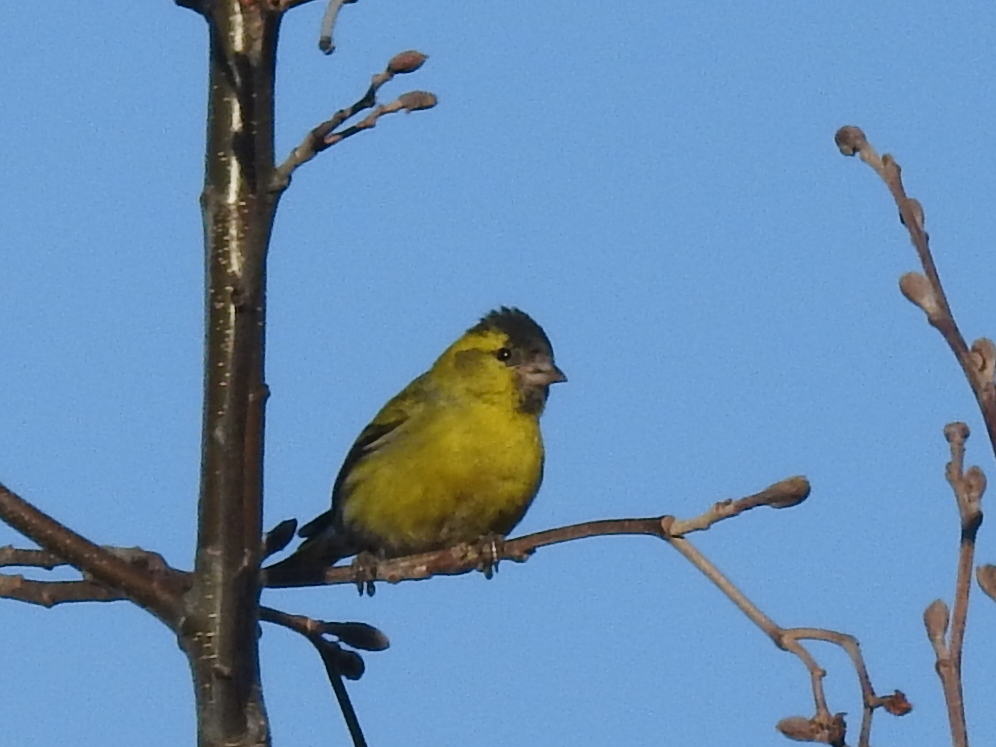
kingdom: Animalia
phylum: Chordata
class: Aves
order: Passeriformes
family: Fringillidae
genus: Spinus
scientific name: Spinus spinus
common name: Eurasian siskin
